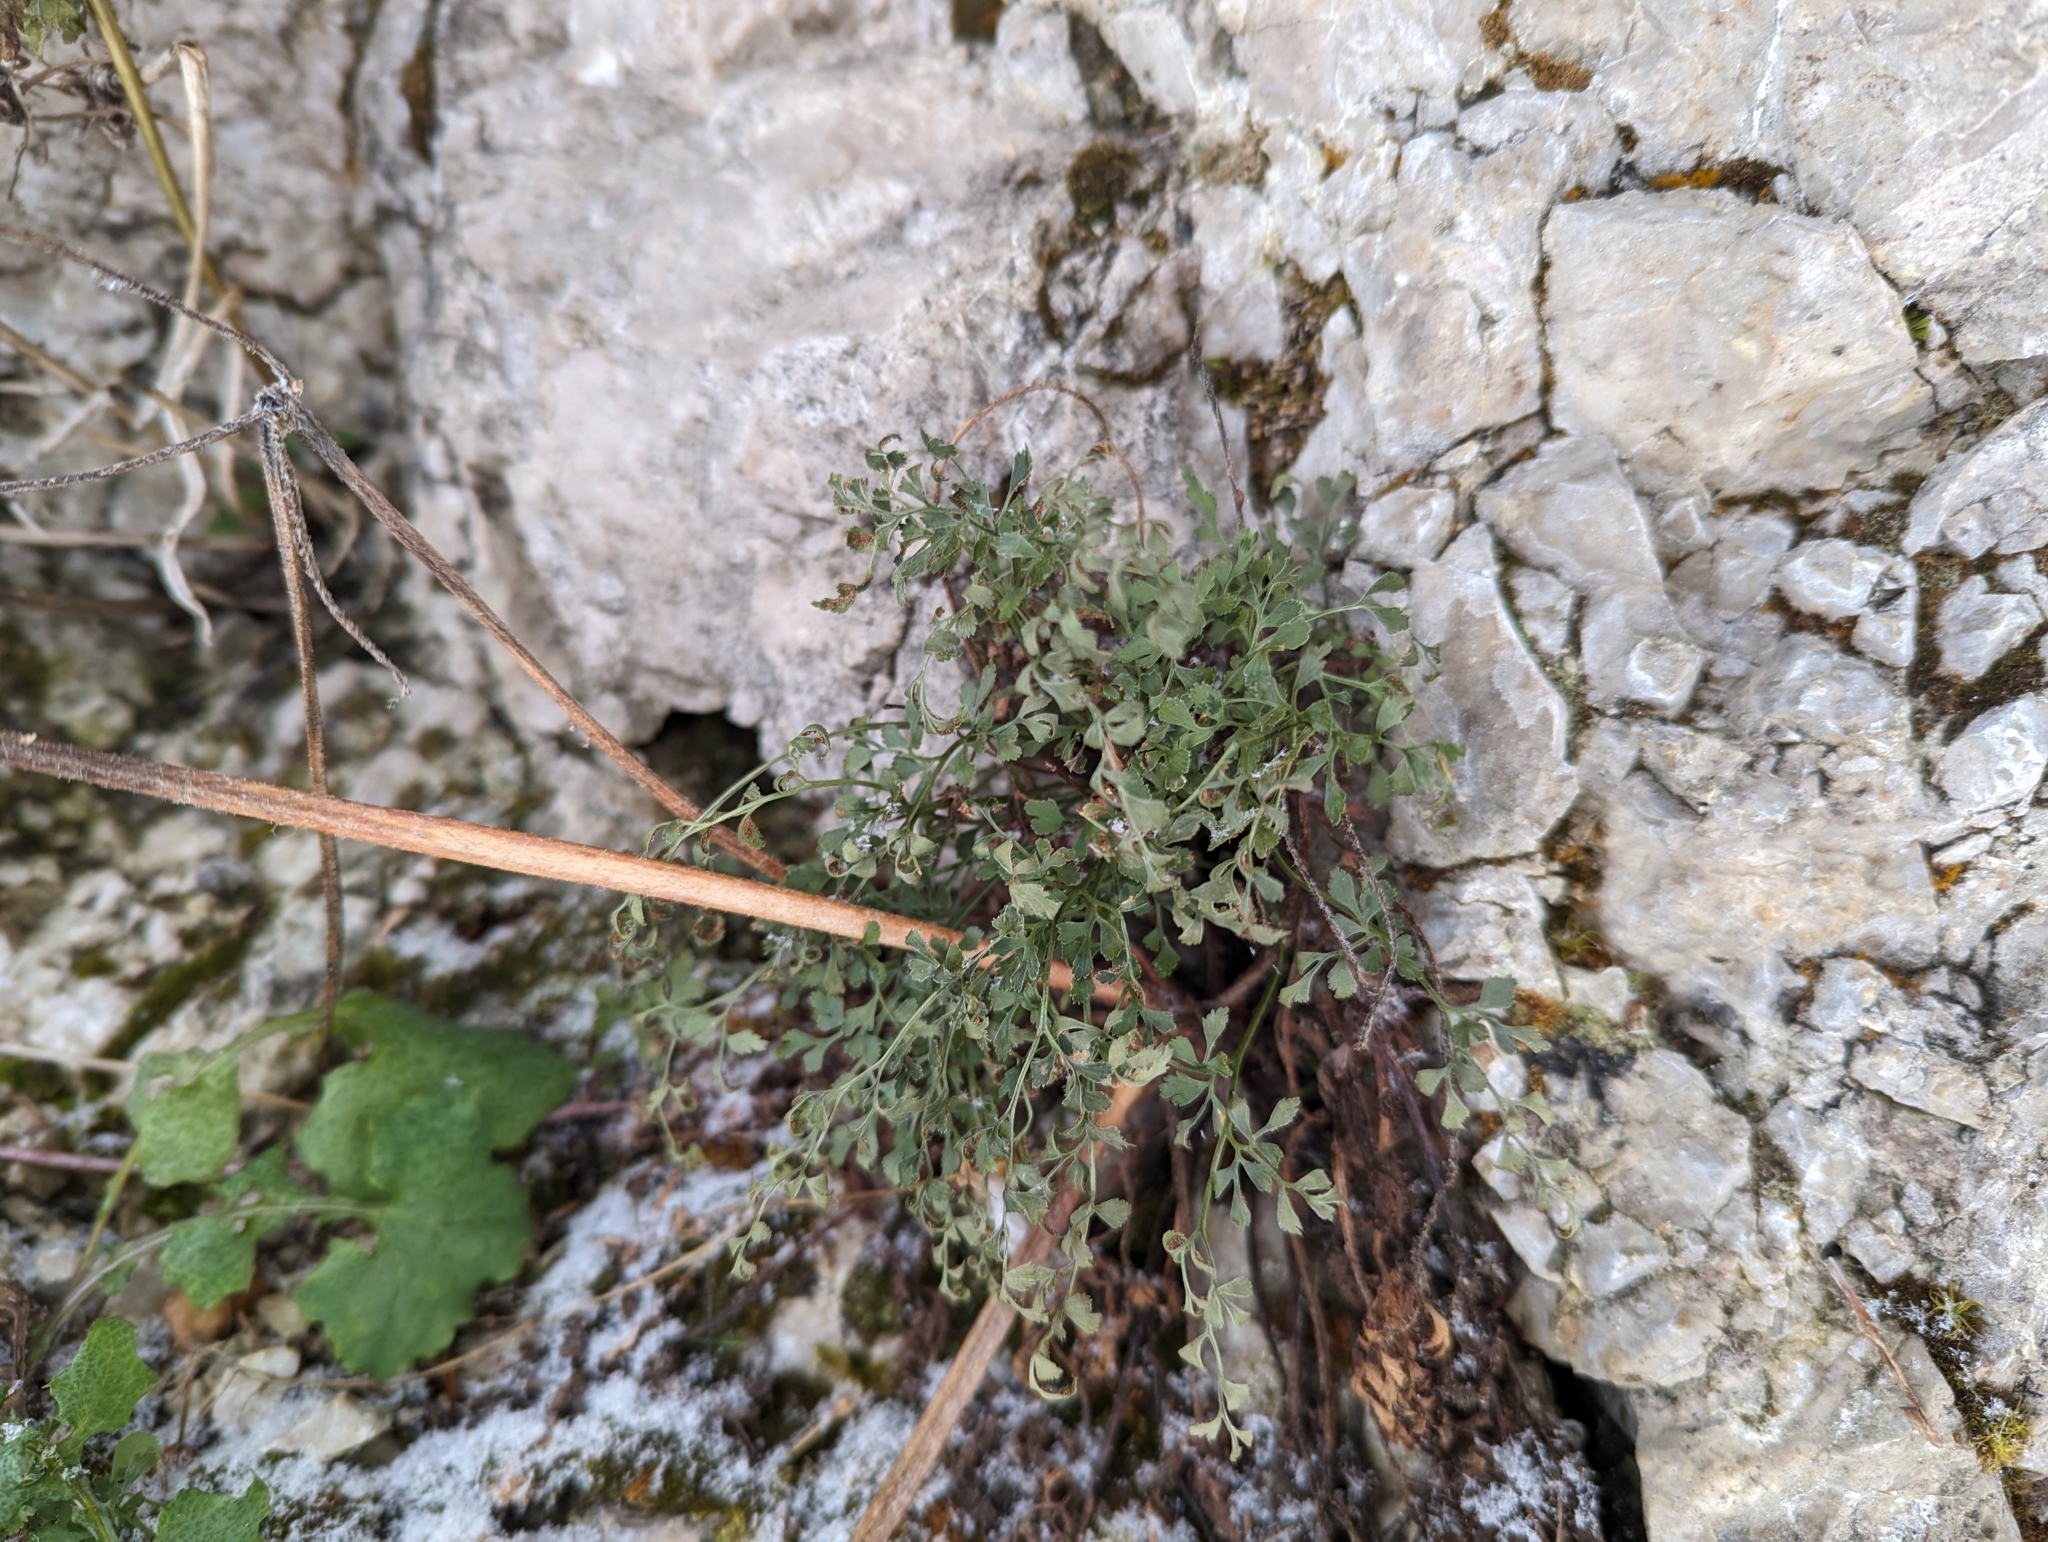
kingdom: Plantae
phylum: Tracheophyta
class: Polypodiopsida
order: Polypodiales
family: Aspleniaceae
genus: Asplenium
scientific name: Asplenium ruta-muraria
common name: Wall-rue
